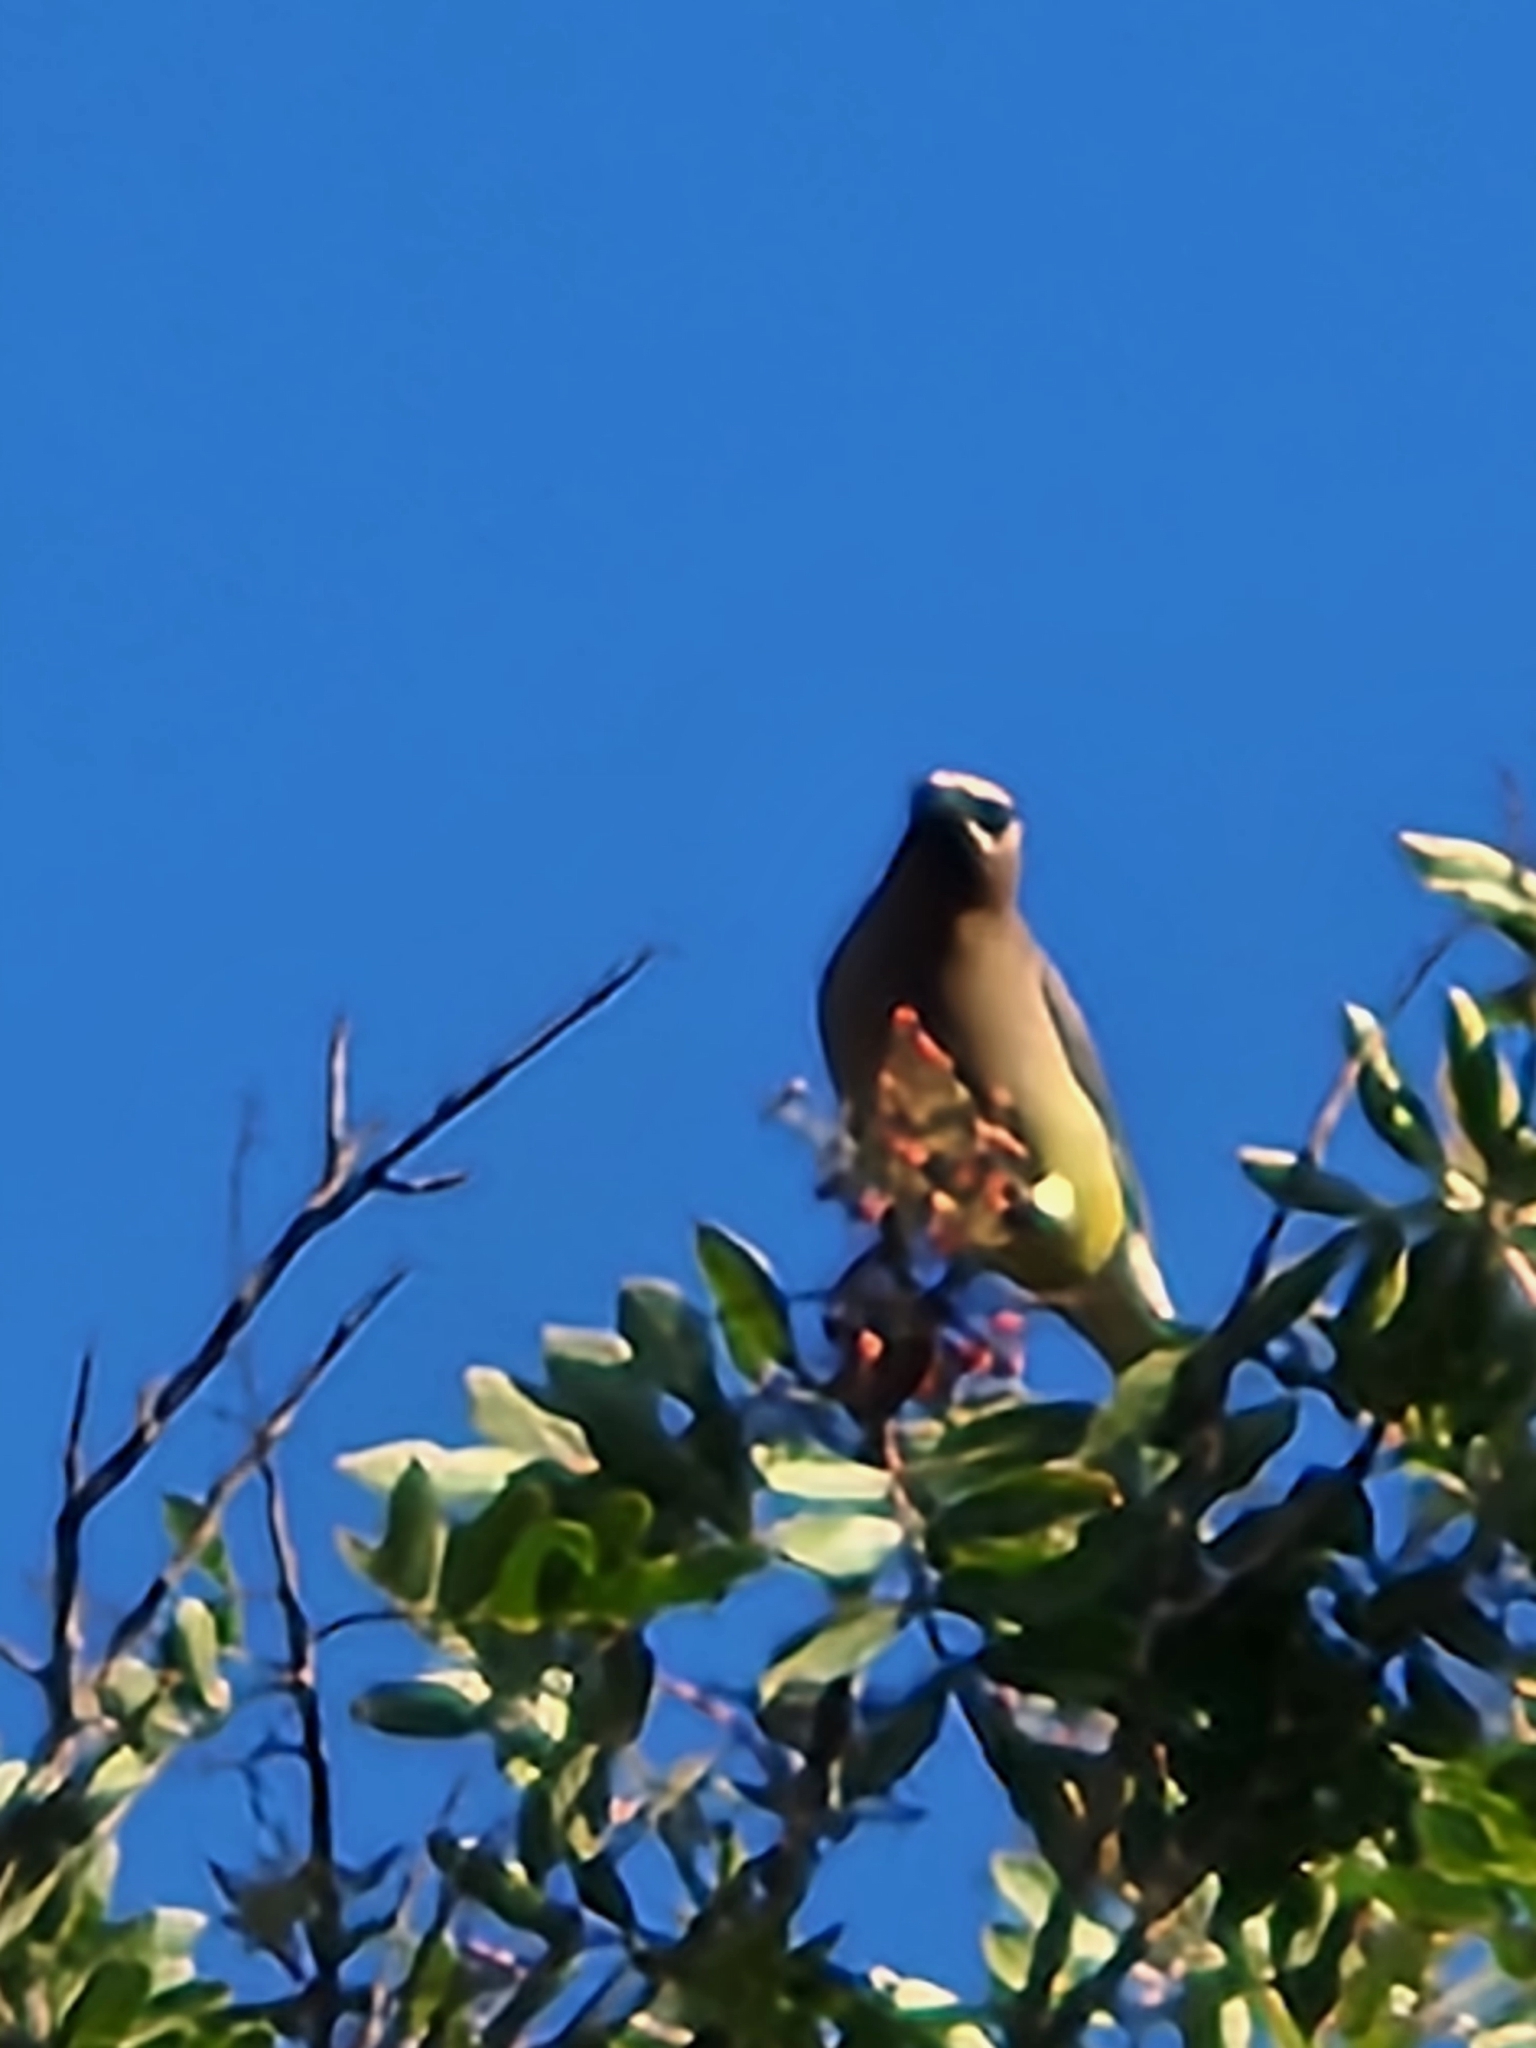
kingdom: Animalia
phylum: Chordata
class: Aves
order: Passeriformes
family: Bombycillidae
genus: Bombycilla
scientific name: Bombycilla cedrorum
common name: Cedar waxwing
